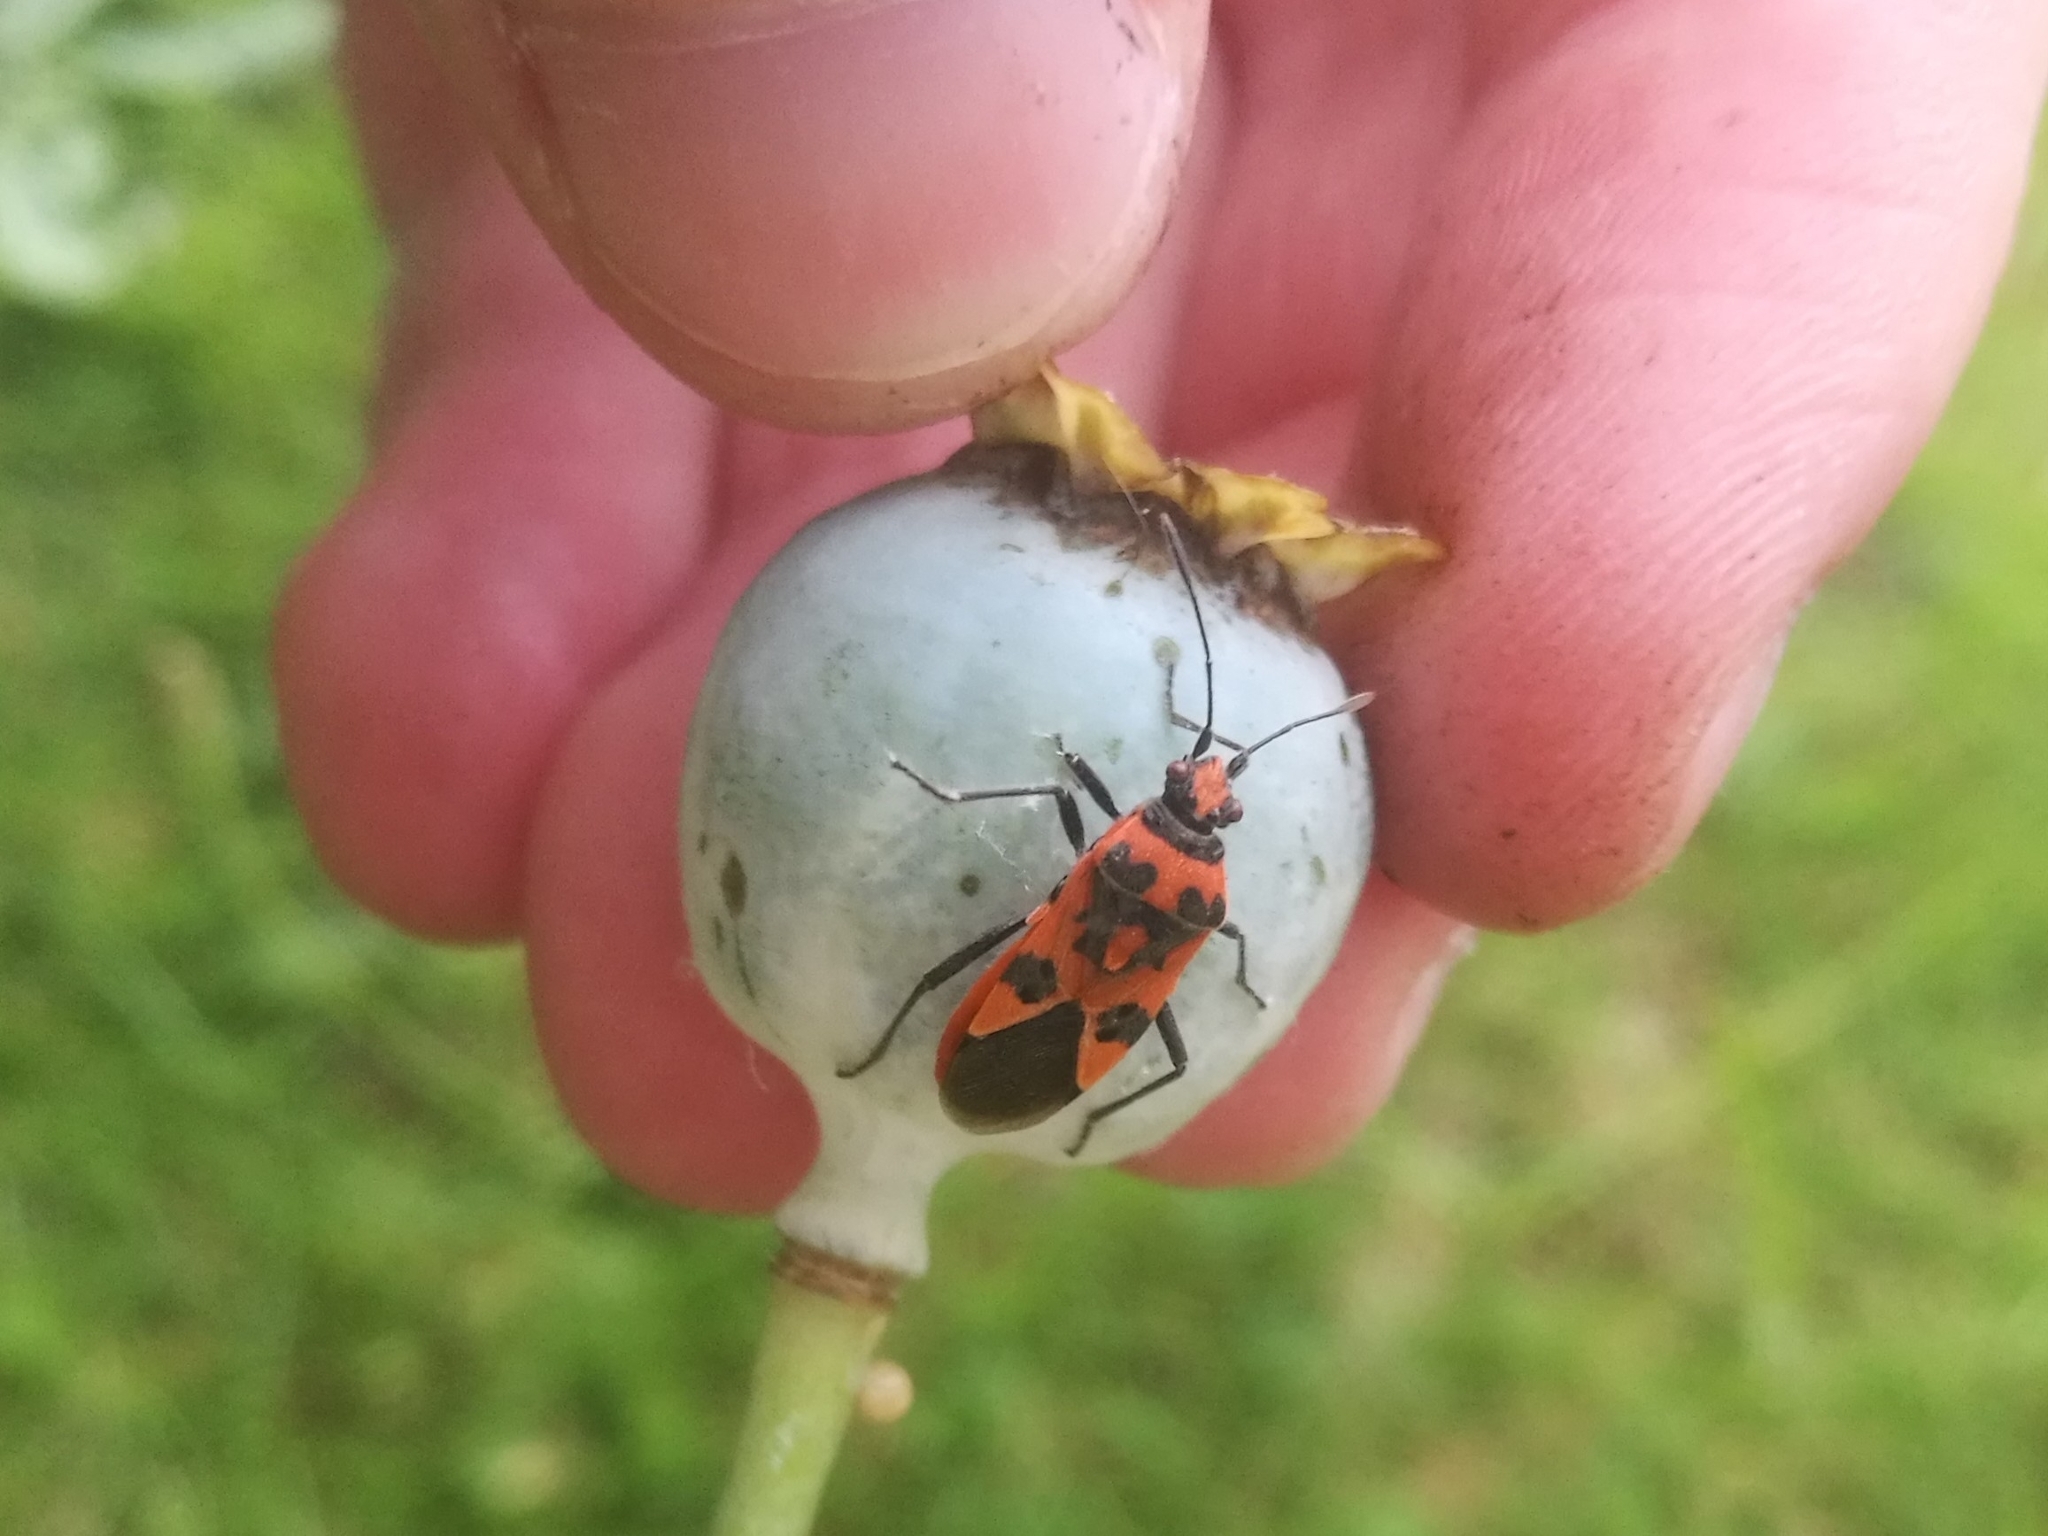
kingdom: Animalia
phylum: Arthropoda
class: Insecta
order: Hemiptera
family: Rhopalidae
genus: Corizus
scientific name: Corizus hyoscyami
